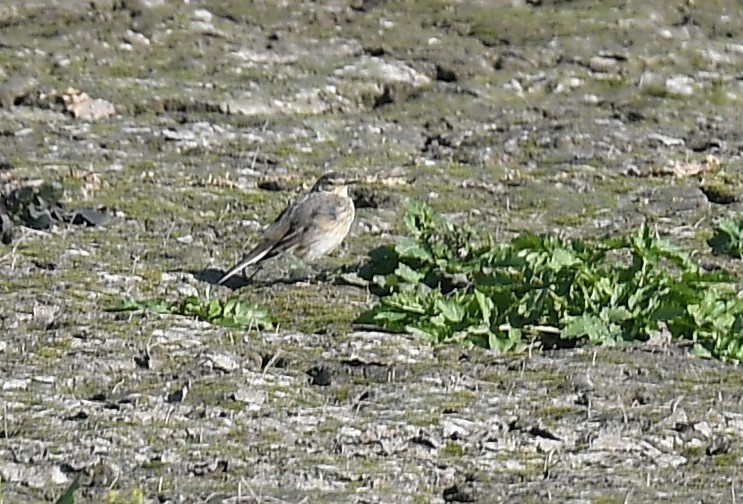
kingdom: Animalia
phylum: Chordata
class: Aves
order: Passeriformes
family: Motacillidae
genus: Anthus
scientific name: Anthus rubescens
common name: Buff-bellied pipit
